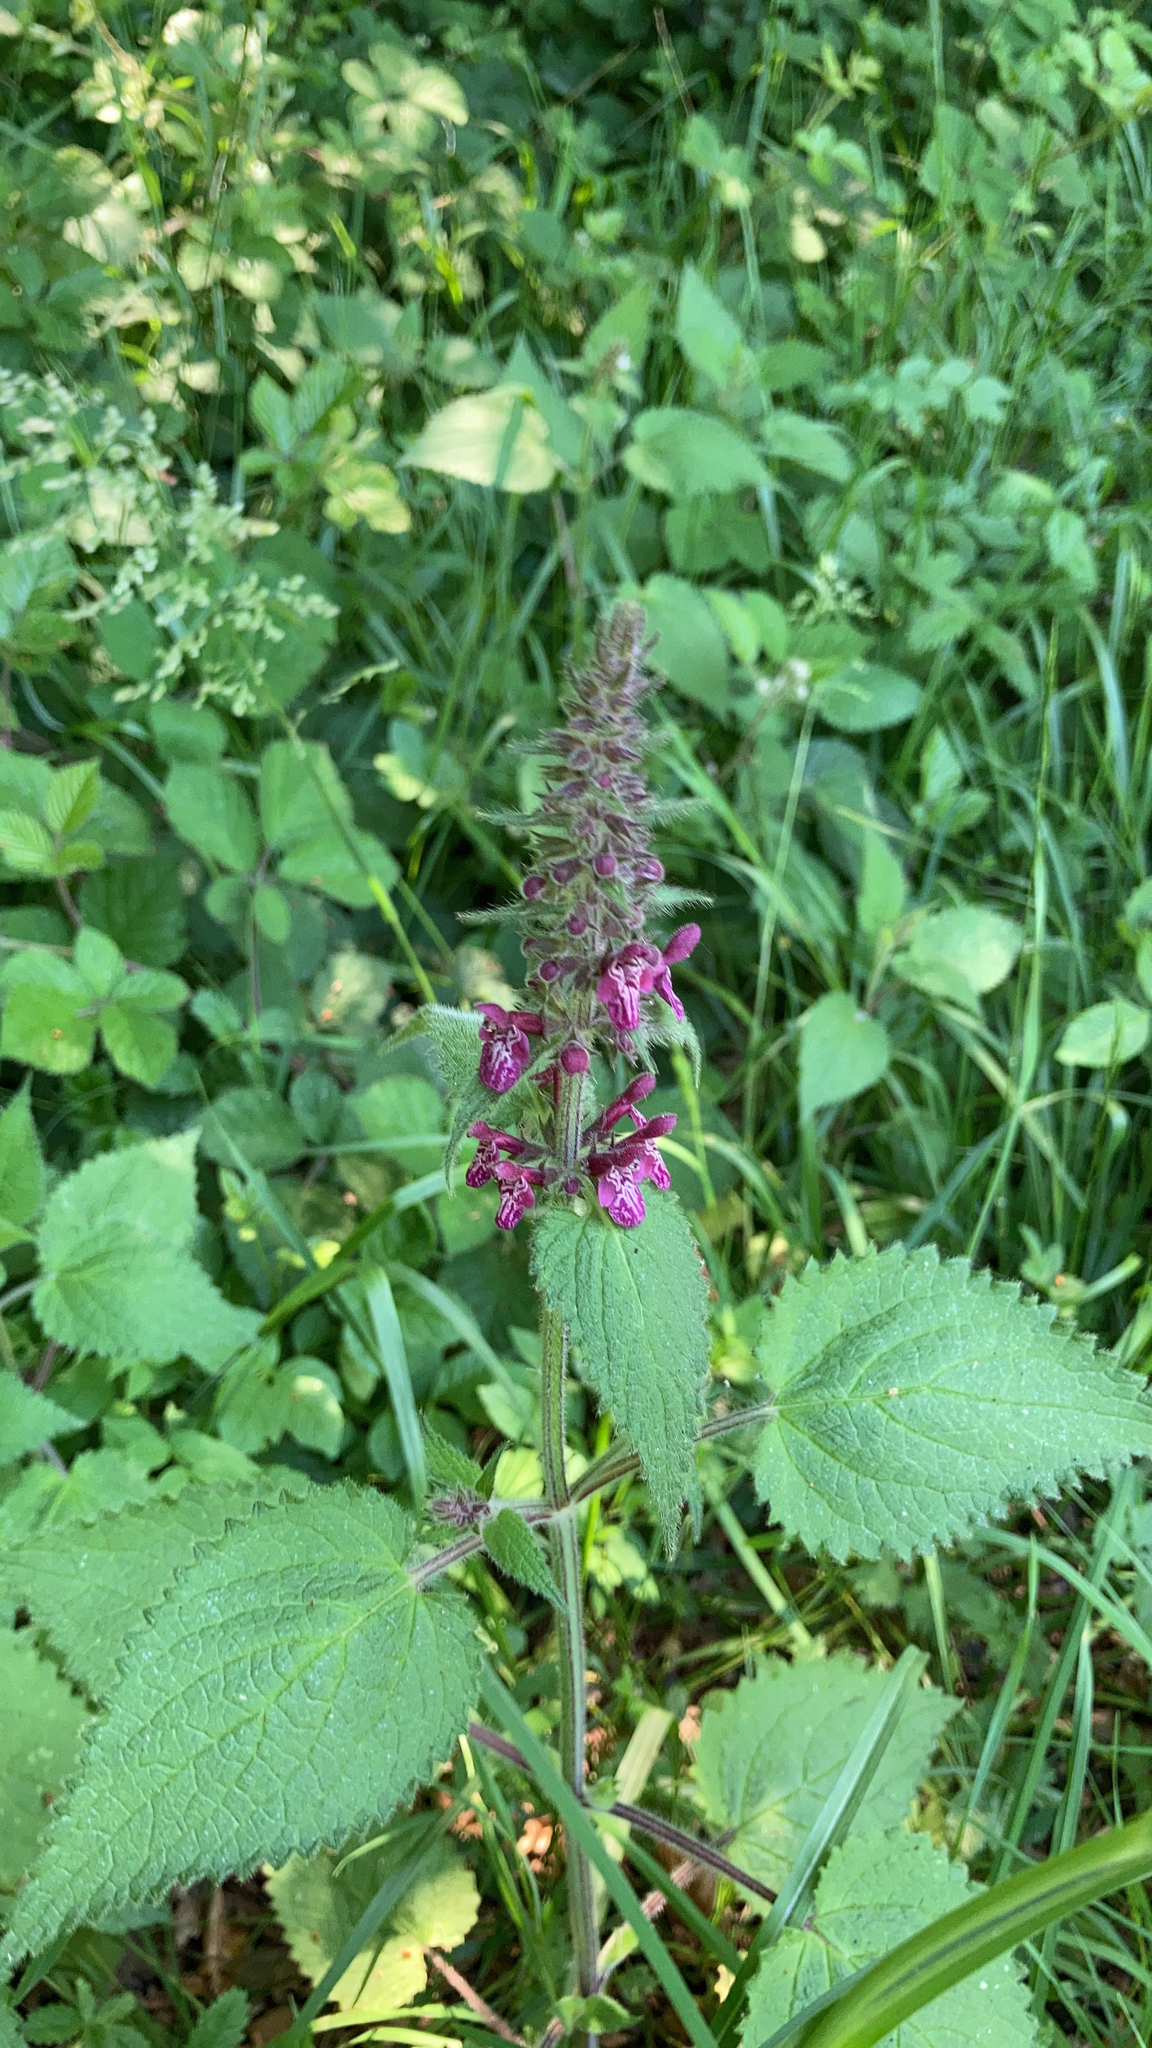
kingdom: Plantae
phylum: Tracheophyta
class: Magnoliopsida
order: Lamiales
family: Lamiaceae
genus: Stachys
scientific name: Stachys sylvatica
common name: Hedge woundwort
